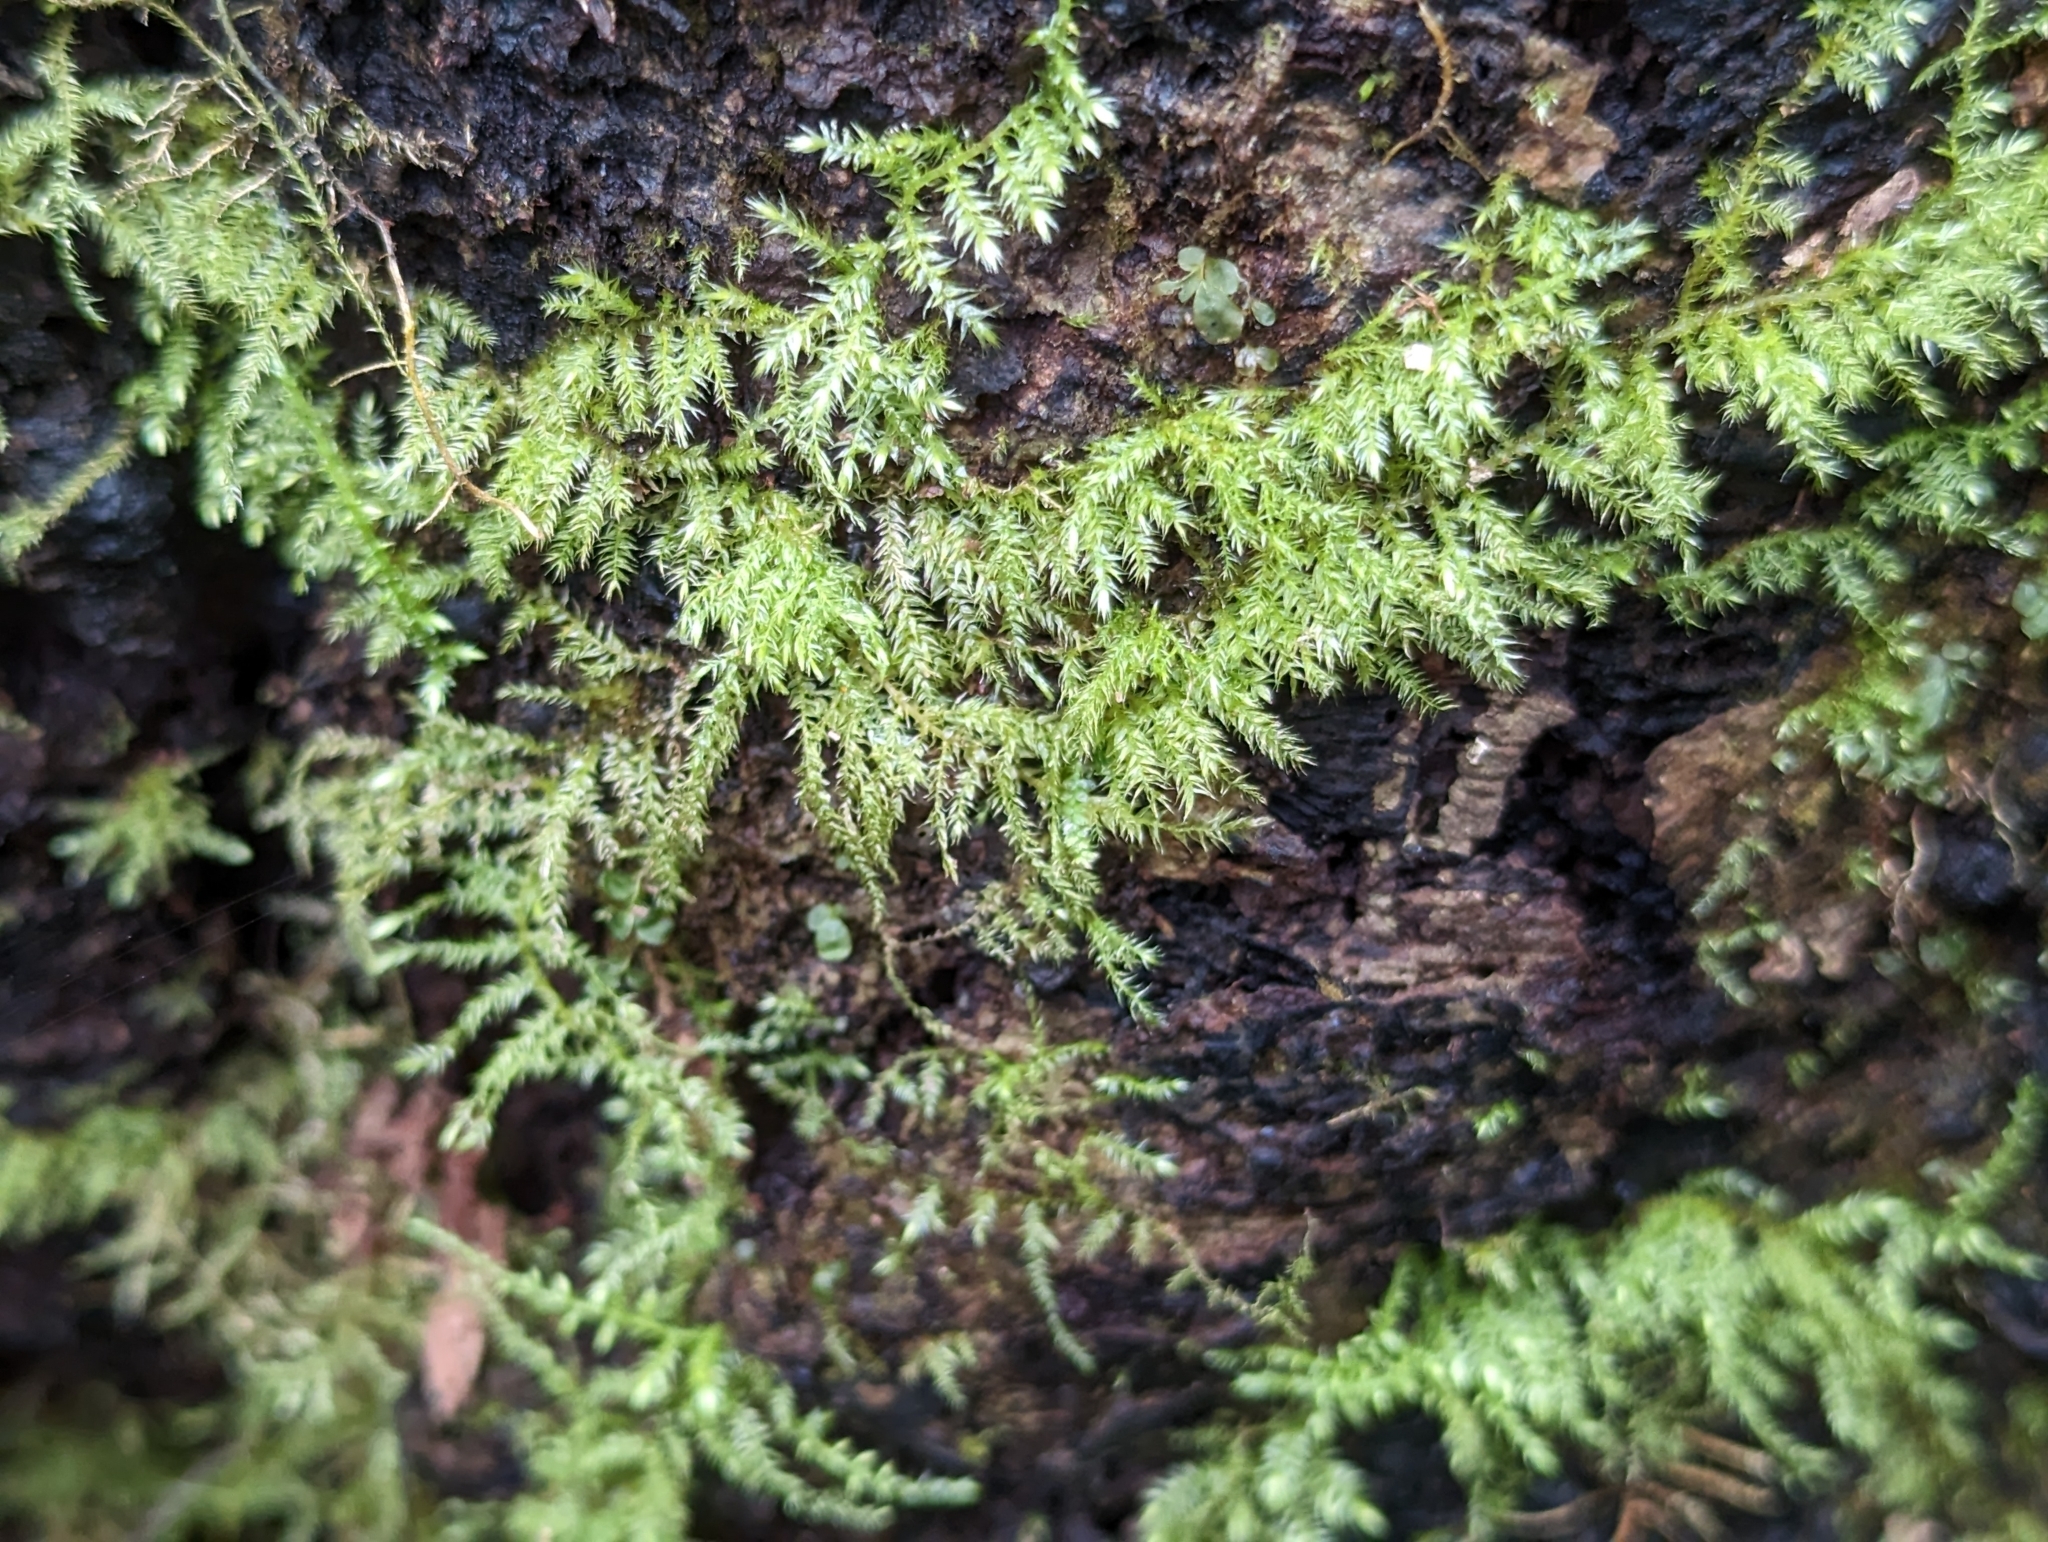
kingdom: Plantae
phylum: Bryophyta
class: Bryopsida
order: Hypnales
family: Brachytheciaceae
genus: Kindbergia
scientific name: Kindbergia praelonga
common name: Slender beaked moss
